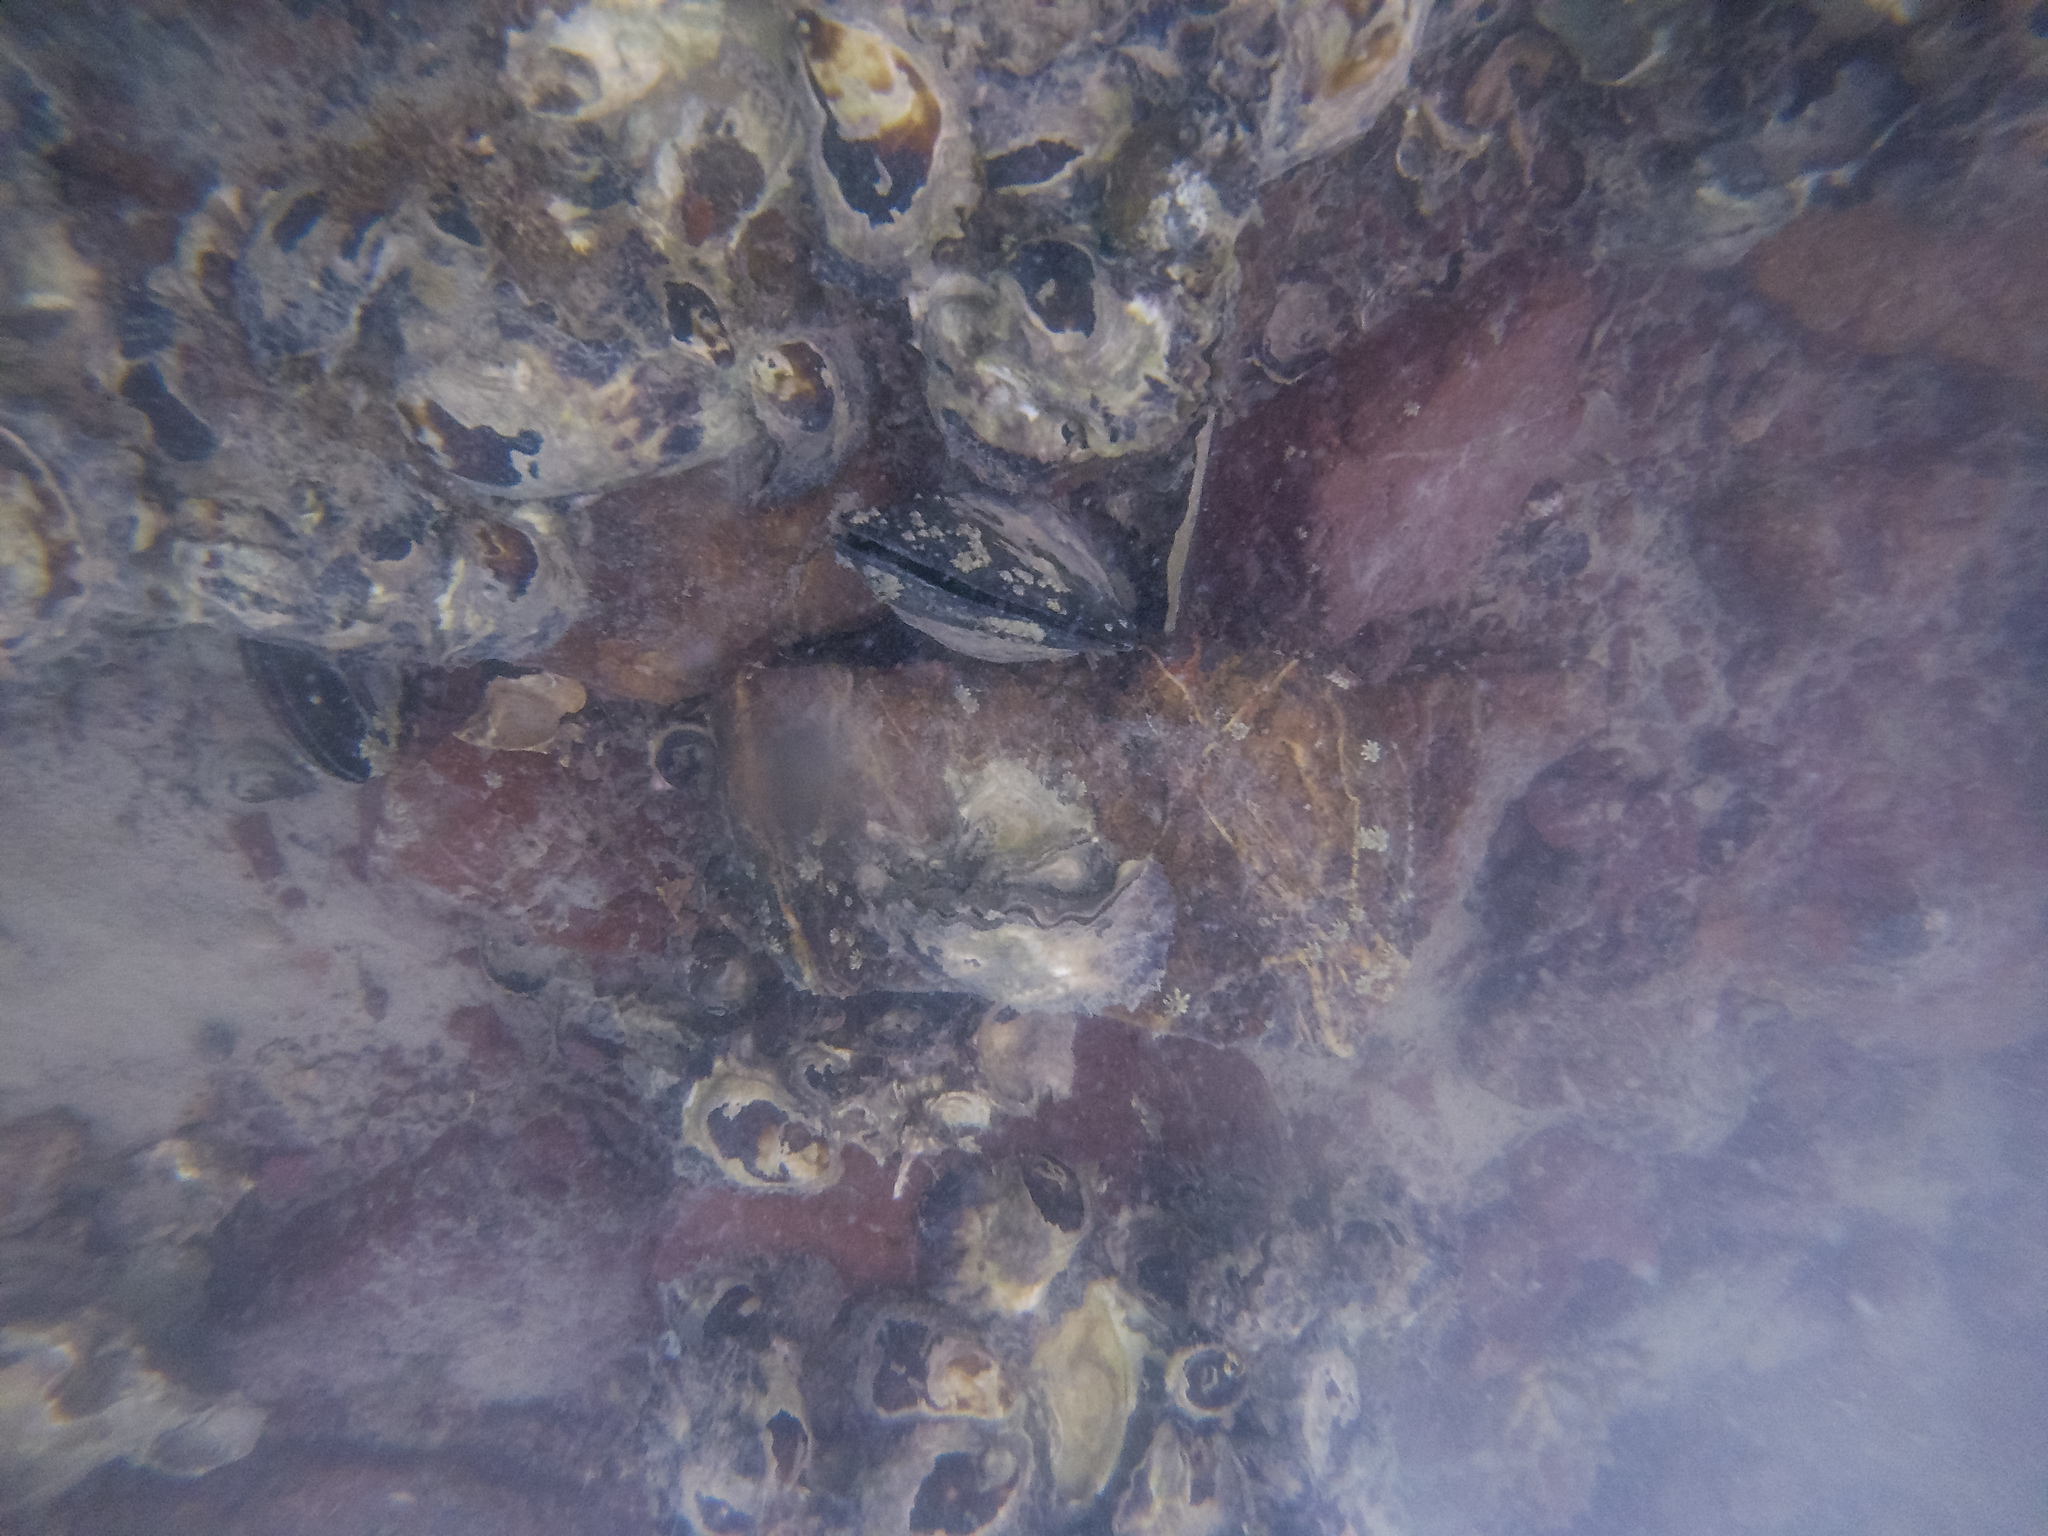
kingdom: Animalia
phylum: Mollusca
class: Bivalvia
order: Mytilida
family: Mytilidae
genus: Perna
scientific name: Perna canaliculus
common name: New zealand greenshelltm
